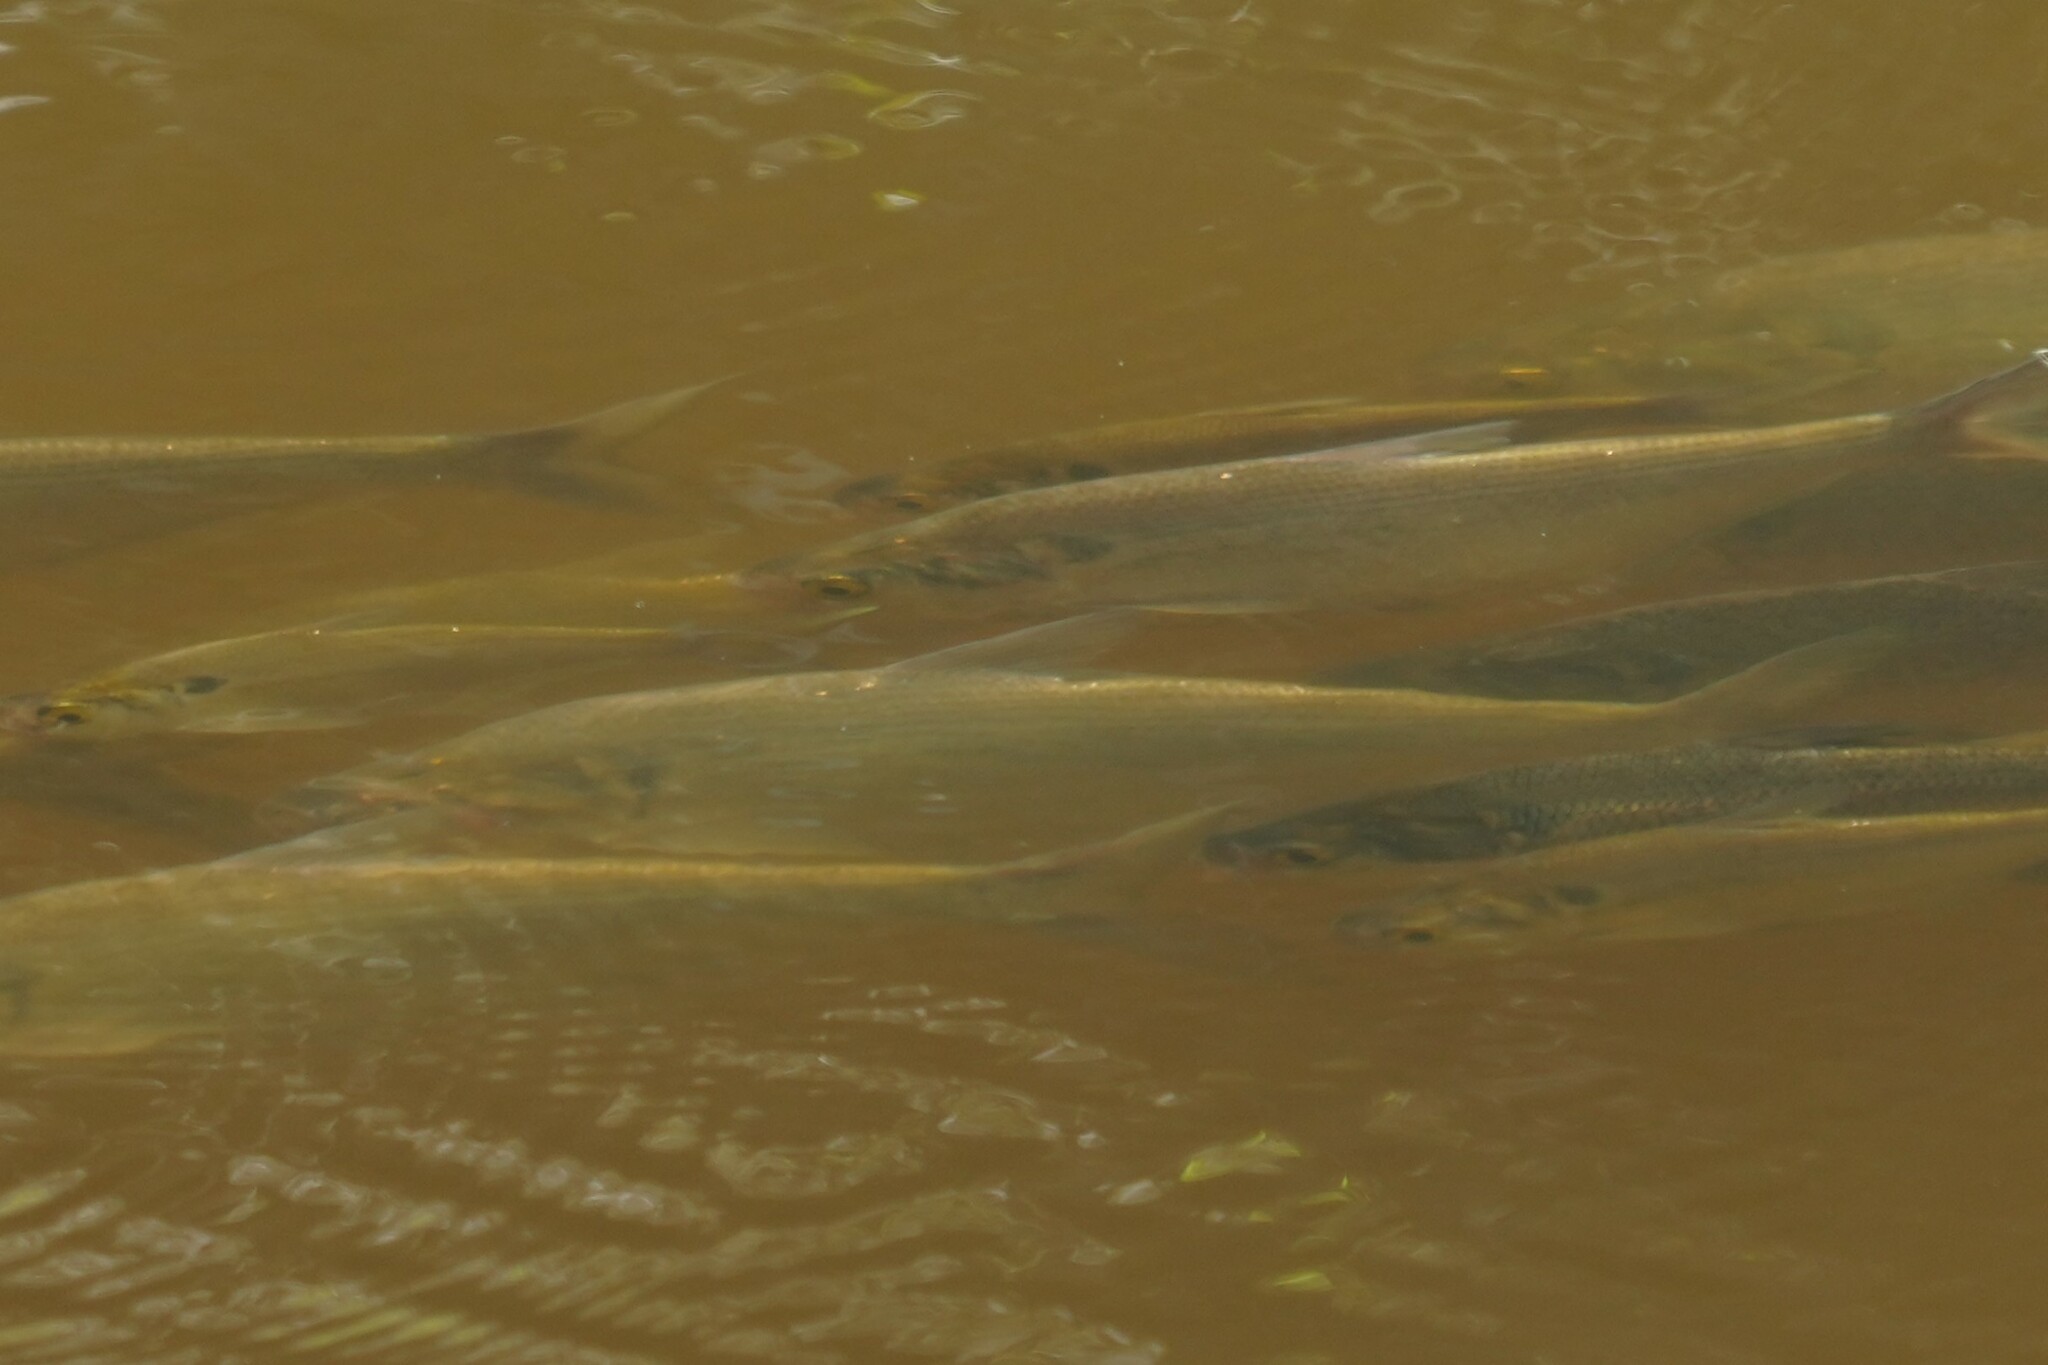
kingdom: Animalia
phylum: Chordata
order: Clupeiformes
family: Clupeidae
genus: Dorosoma
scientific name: Dorosoma cepedianum
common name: Gizzard shad
